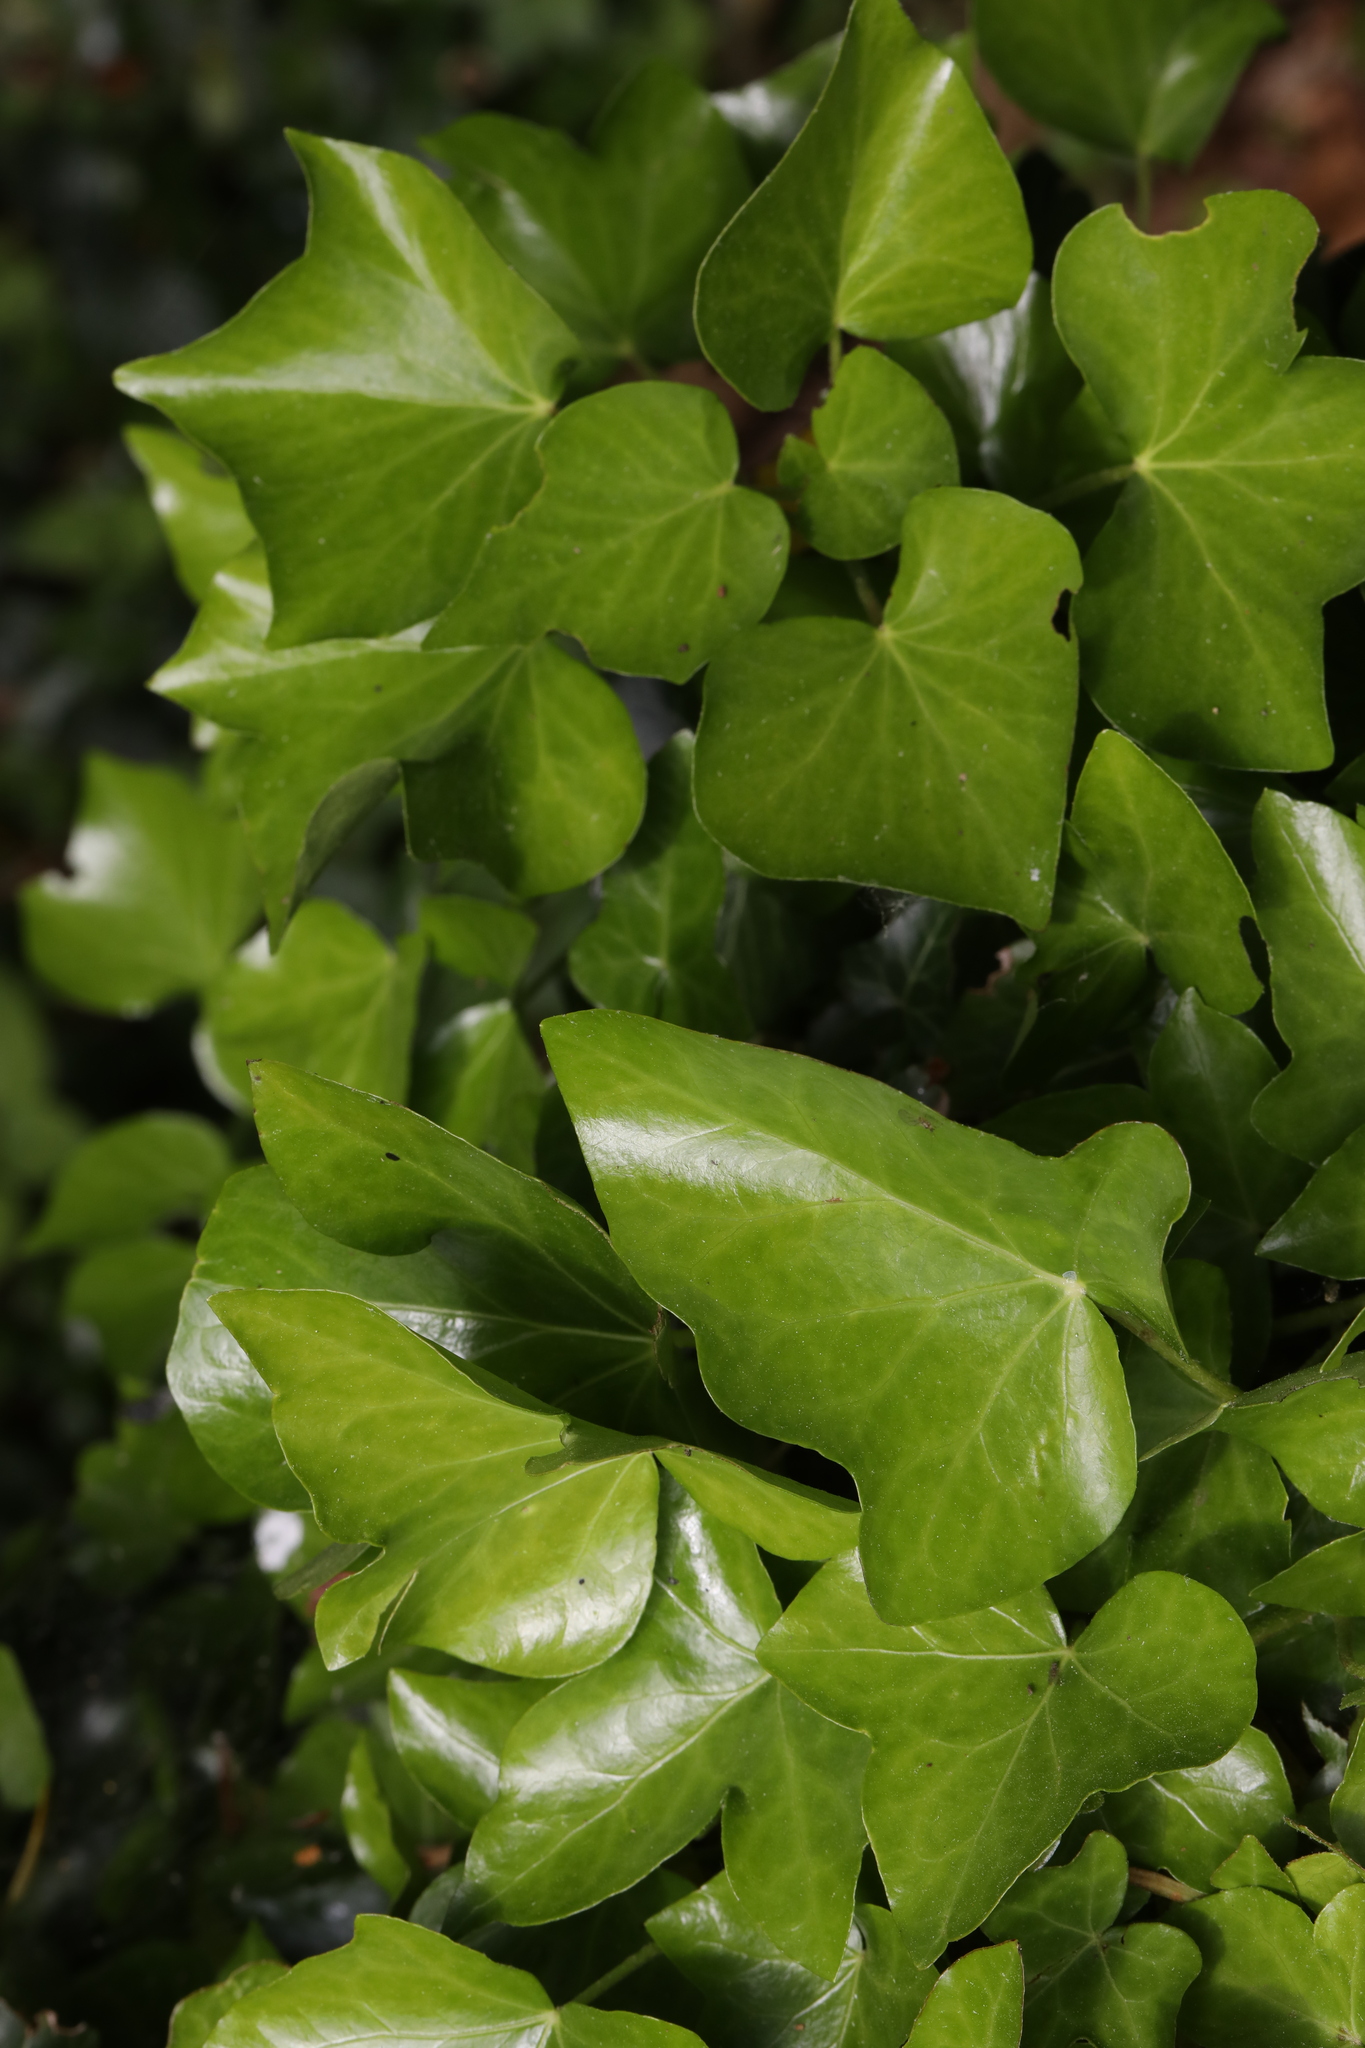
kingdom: Plantae
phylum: Tracheophyta
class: Magnoliopsida
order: Apiales
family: Araliaceae
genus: Hedera
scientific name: Hedera helix
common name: Ivy
